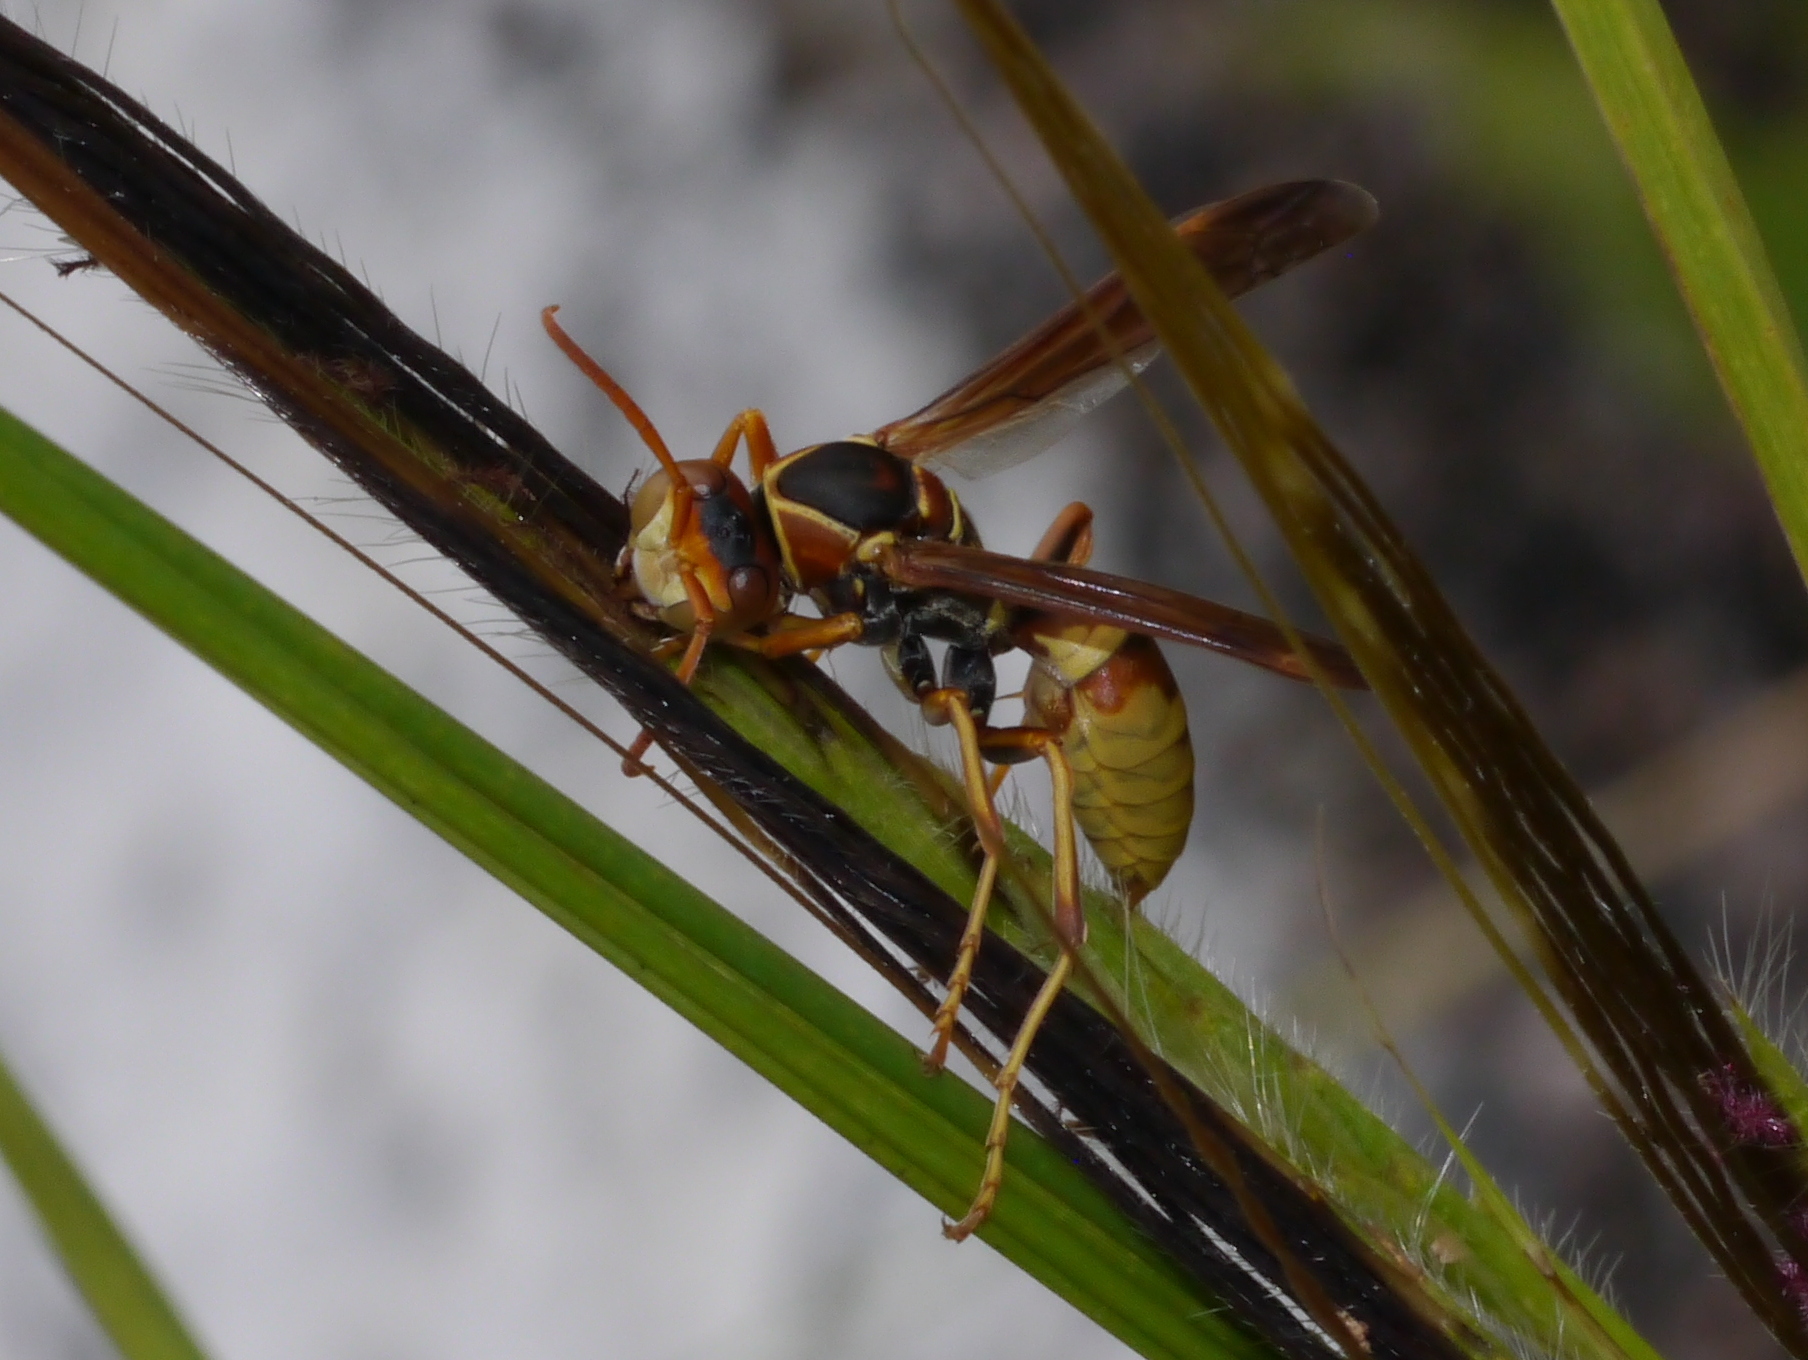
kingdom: Animalia
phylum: Arthropoda
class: Insecta
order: Hymenoptera
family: Eumenidae
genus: Polistes
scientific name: Polistes dorsalis
